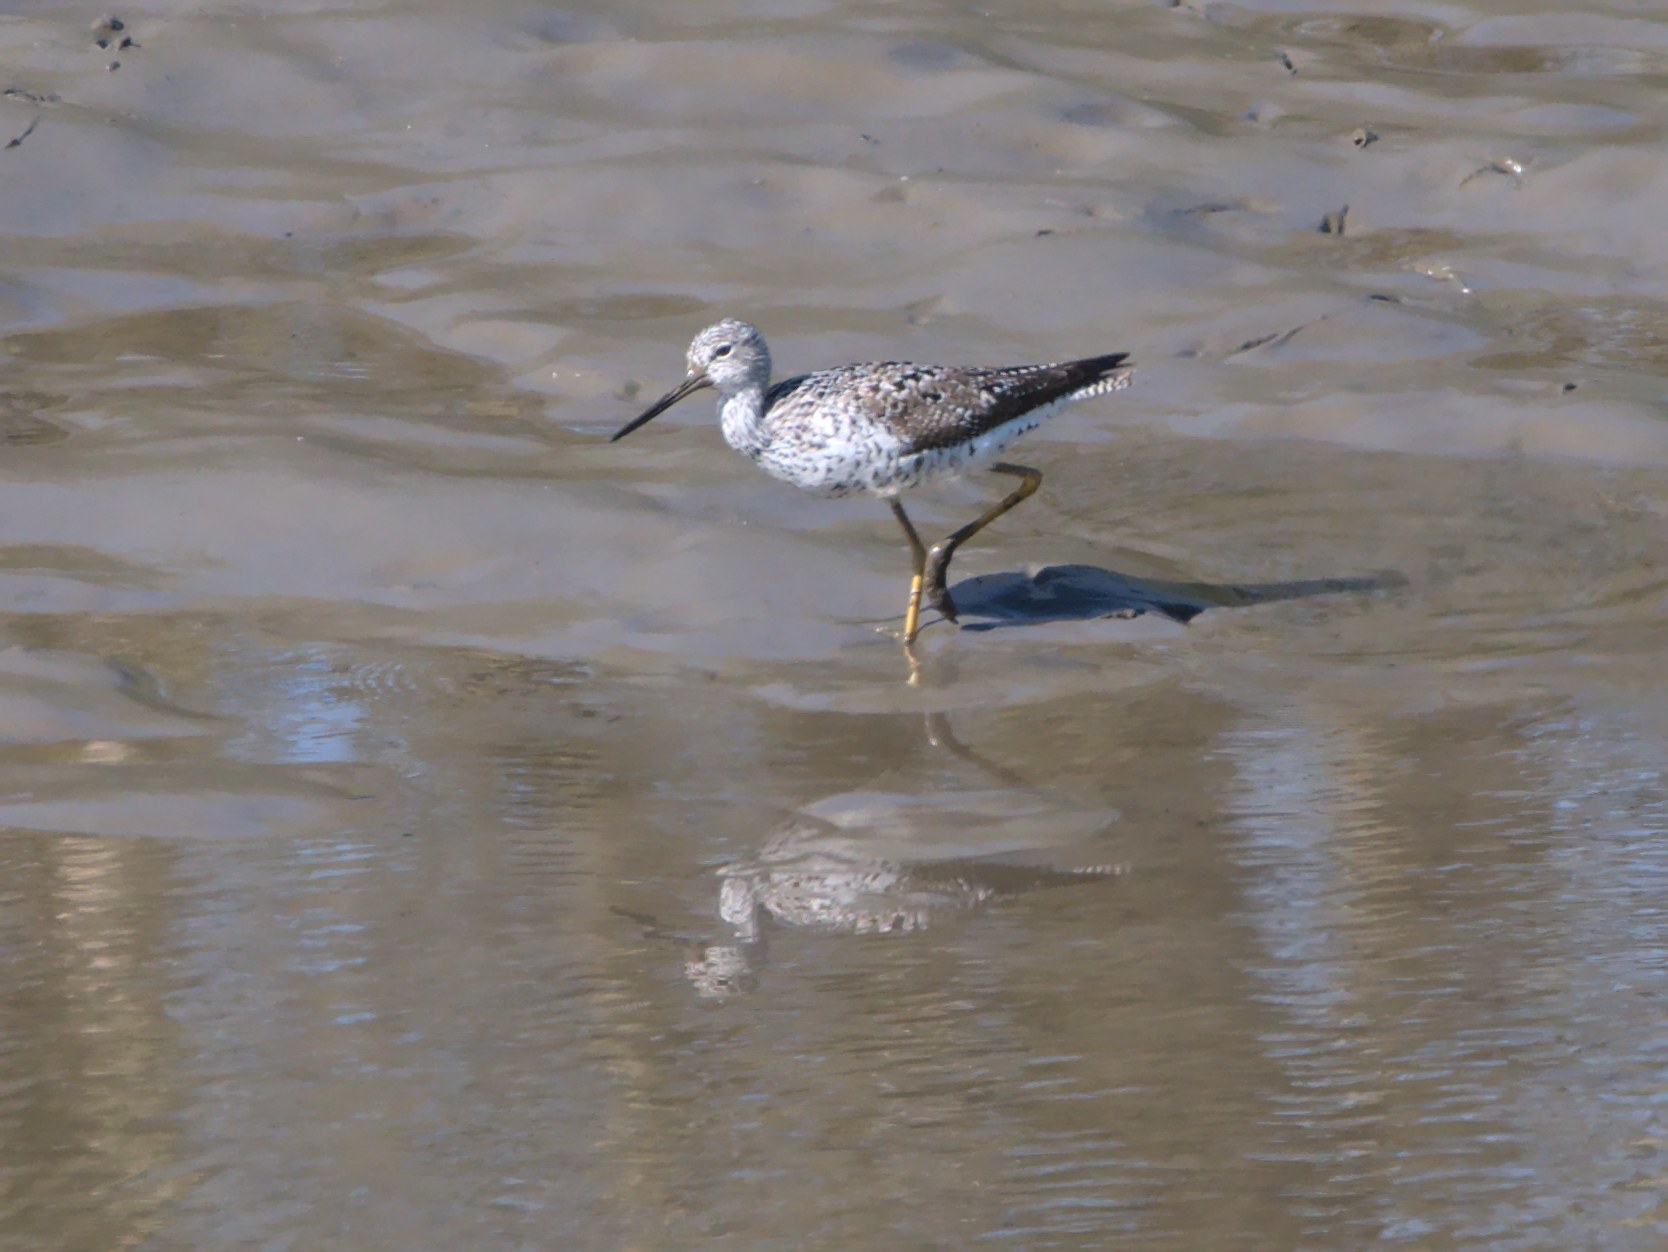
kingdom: Animalia
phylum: Chordata
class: Aves
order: Charadriiformes
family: Scolopacidae
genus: Tringa
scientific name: Tringa melanoleuca
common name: Greater yellowlegs
